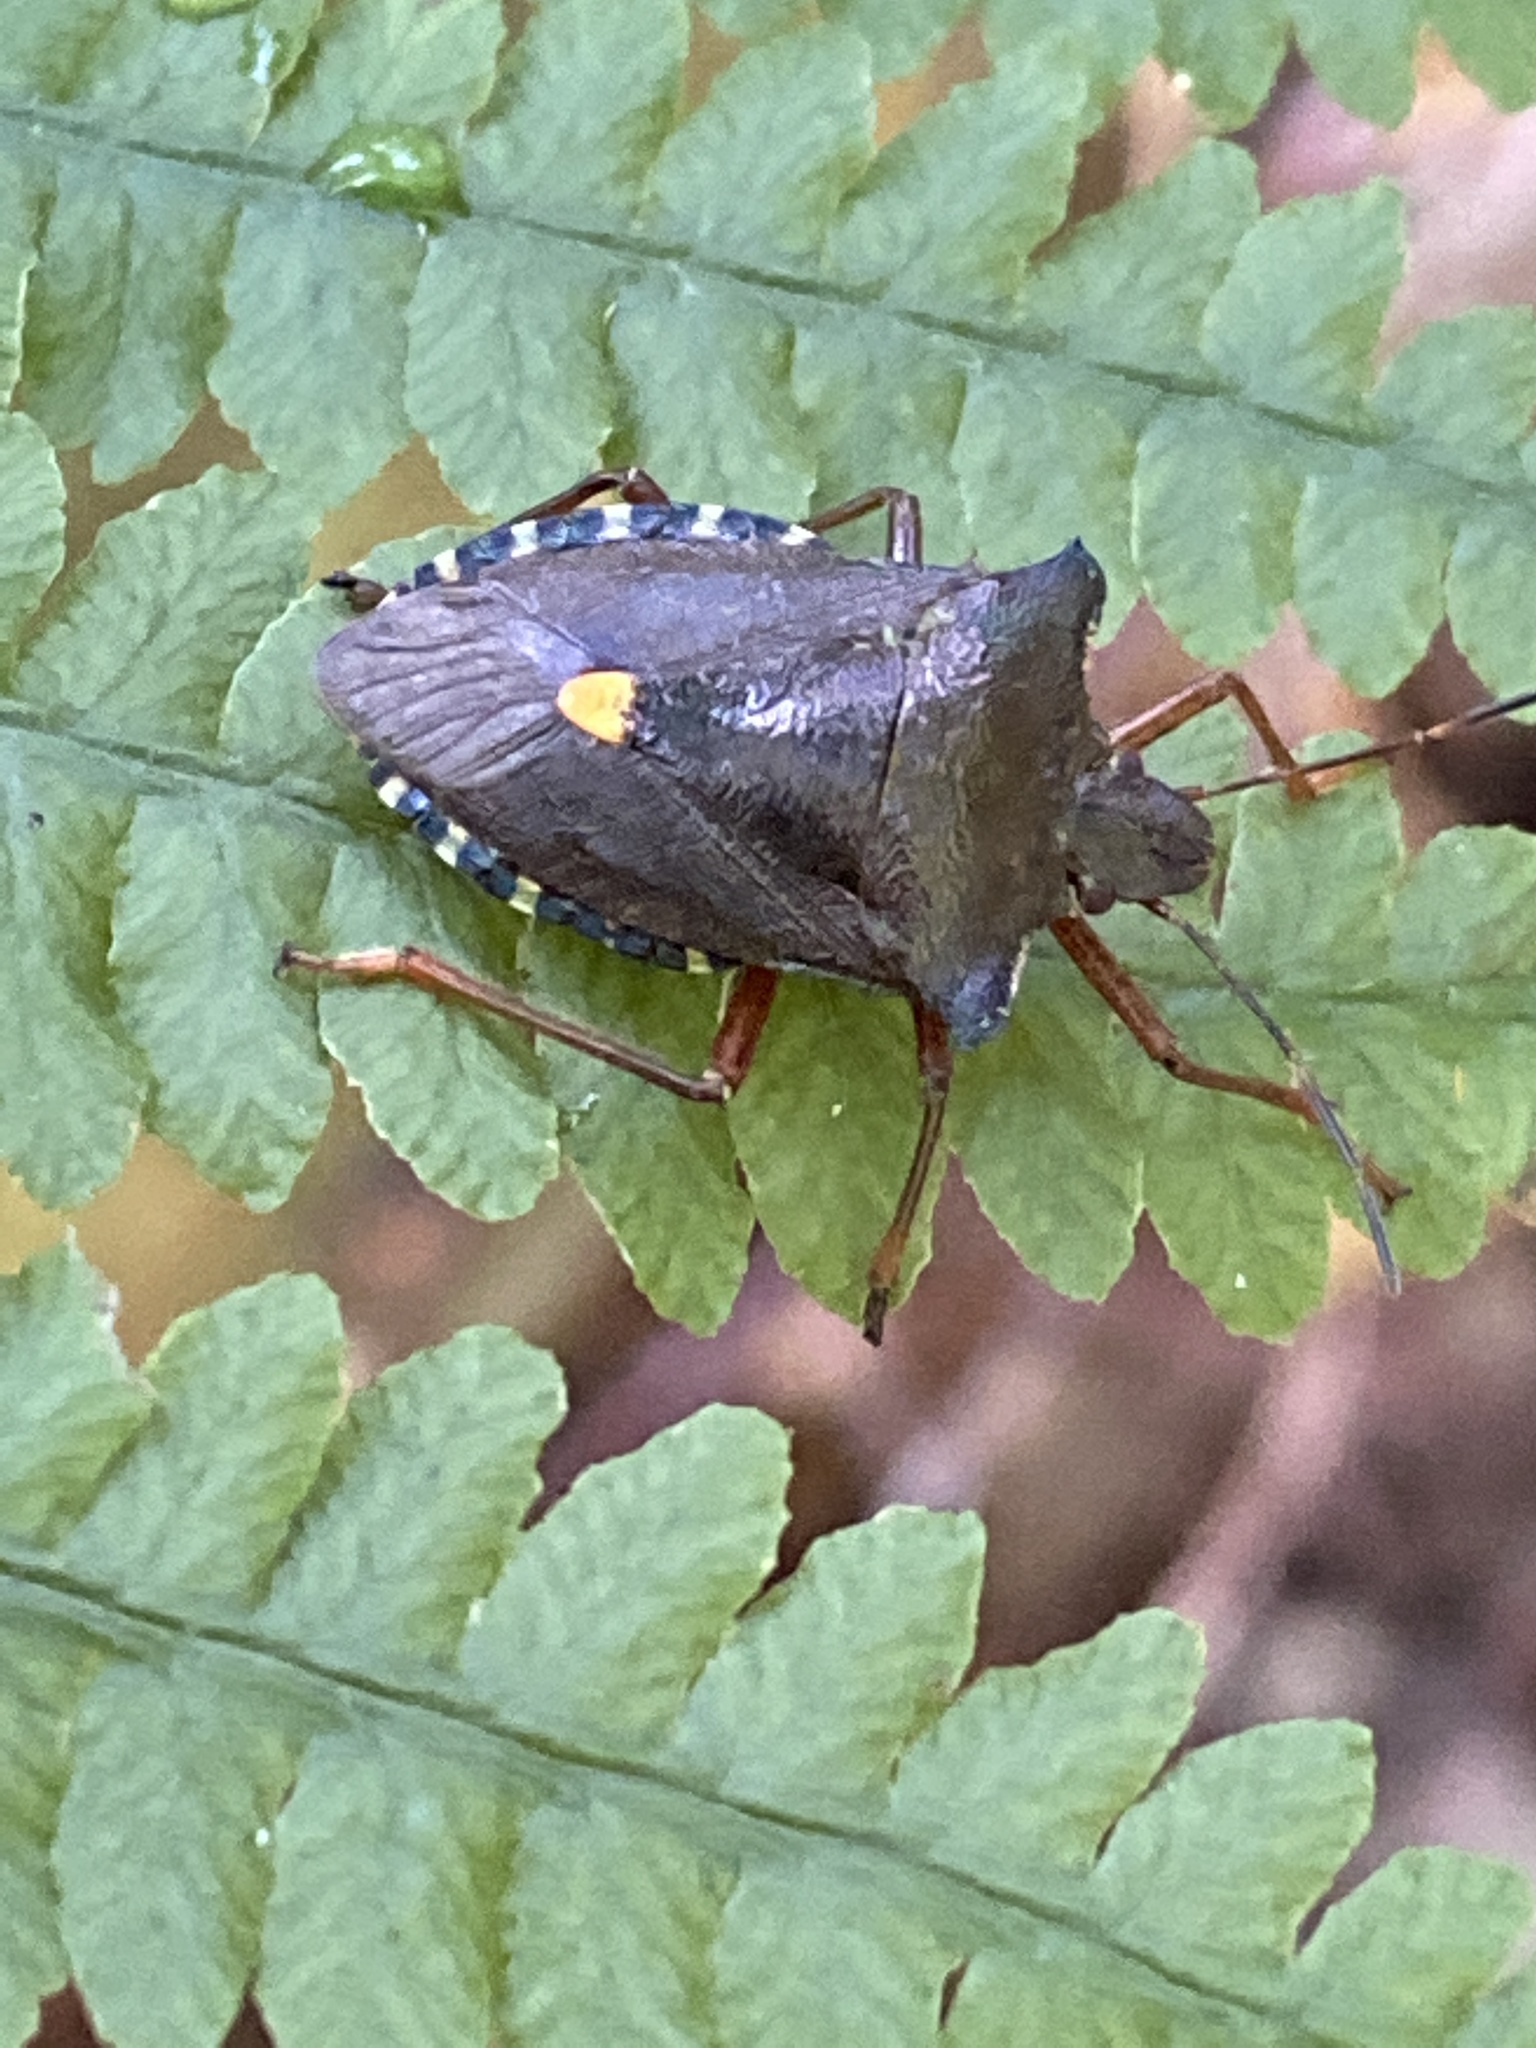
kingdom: Animalia
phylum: Arthropoda
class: Insecta
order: Hemiptera
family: Pentatomidae
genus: Pentatoma
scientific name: Pentatoma rufipes
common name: Forest bug
